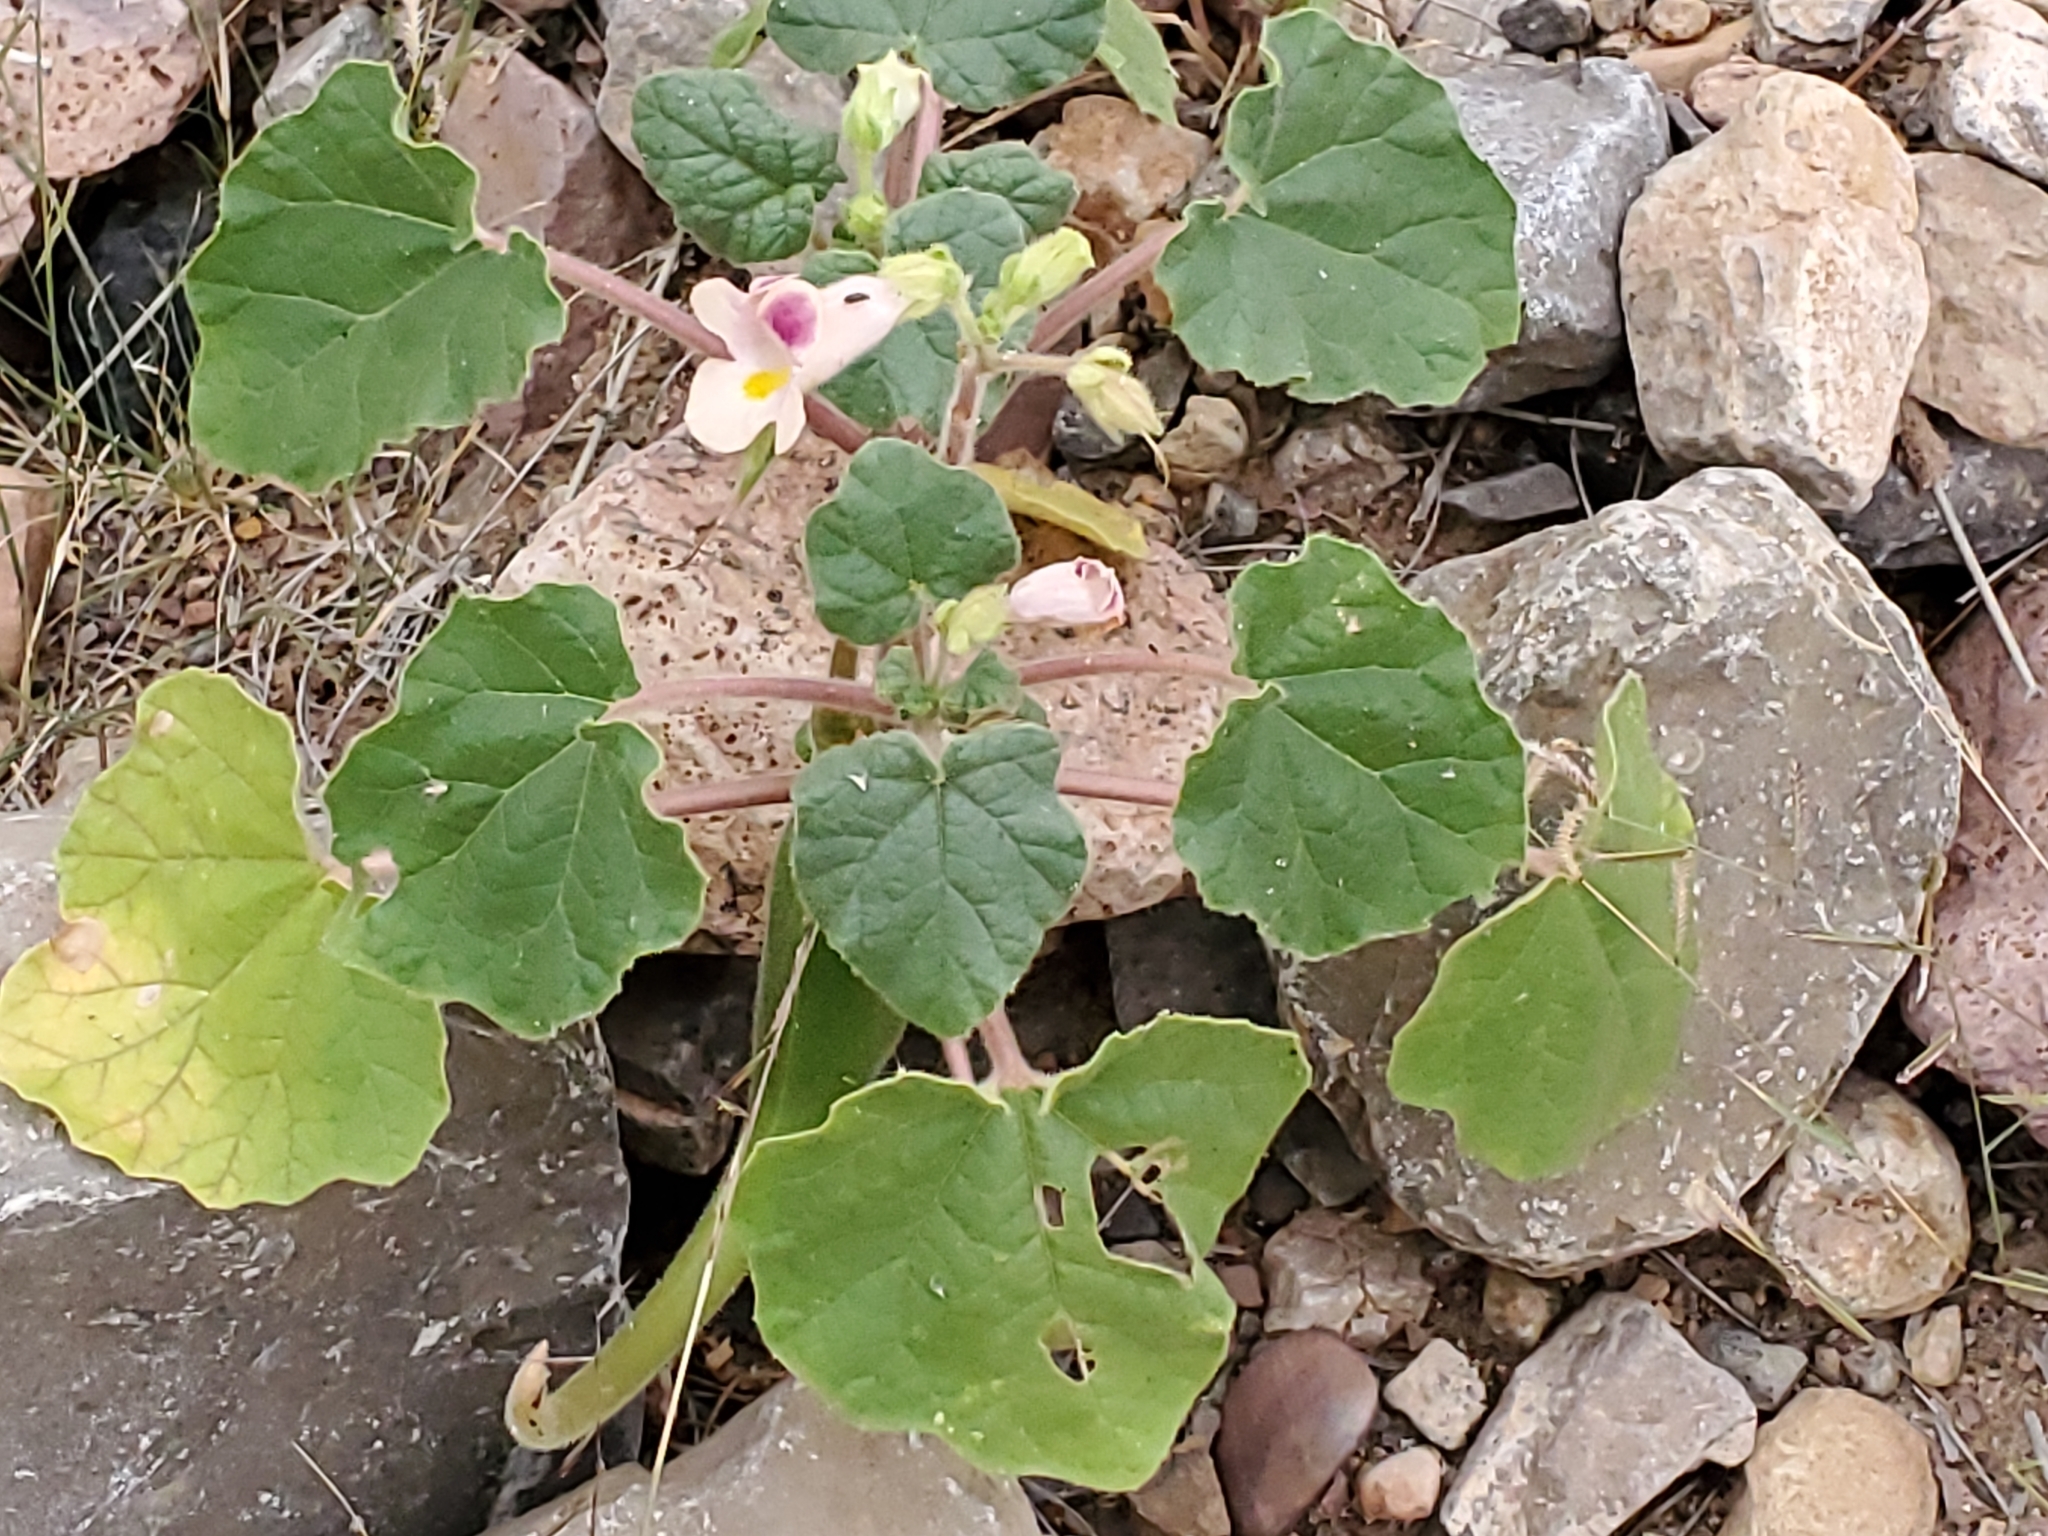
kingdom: Plantae
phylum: Tracheophyta
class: Magnoliopsida
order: Lamiales
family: Martyniaceae
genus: Proboscidea
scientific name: Proboscidea parviflora
